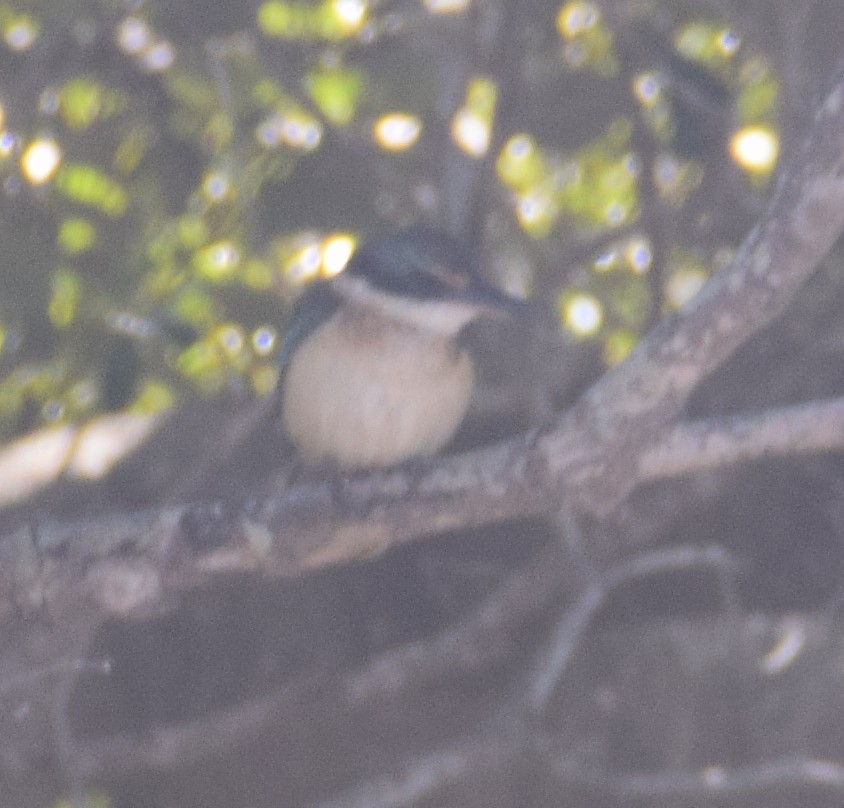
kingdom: Animalia
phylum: Chordata
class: Aves
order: Coraciiformes
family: Alcedinidae
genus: Todiramphus
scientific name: Todiramphus sanctus
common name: Sacred kingfisher
